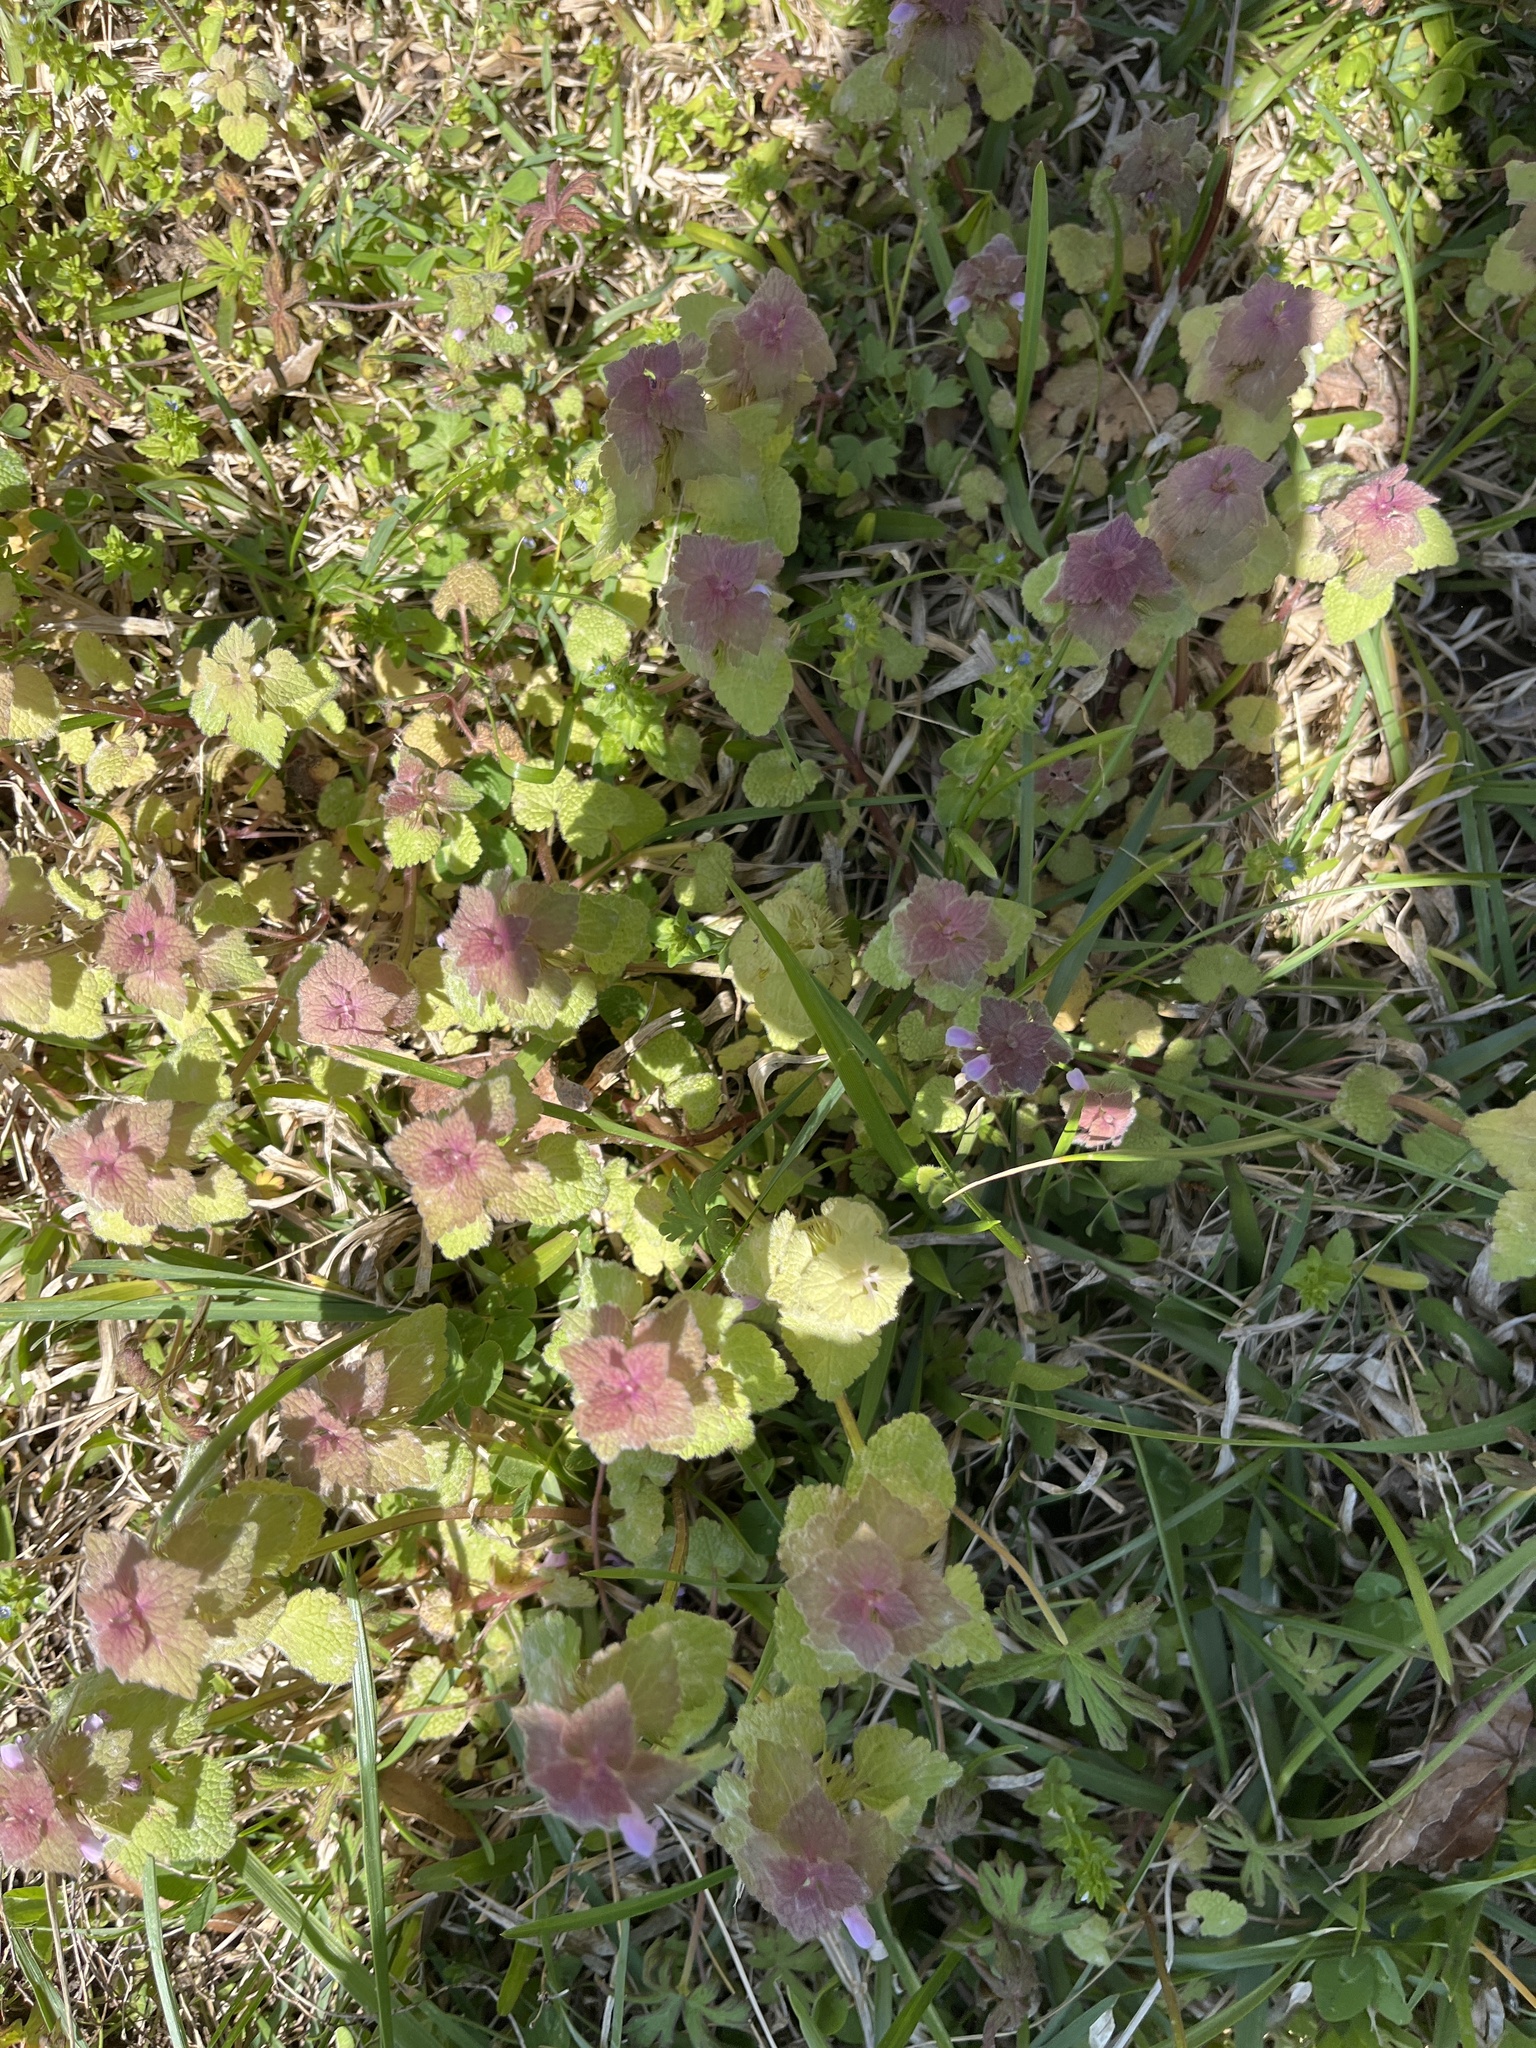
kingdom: Plantae
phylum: Tracheophyta
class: Magnoliopsida
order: Lamiales
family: Lamiaceae
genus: Lamium
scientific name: Lamium purpureum
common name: Red dead-nettle
